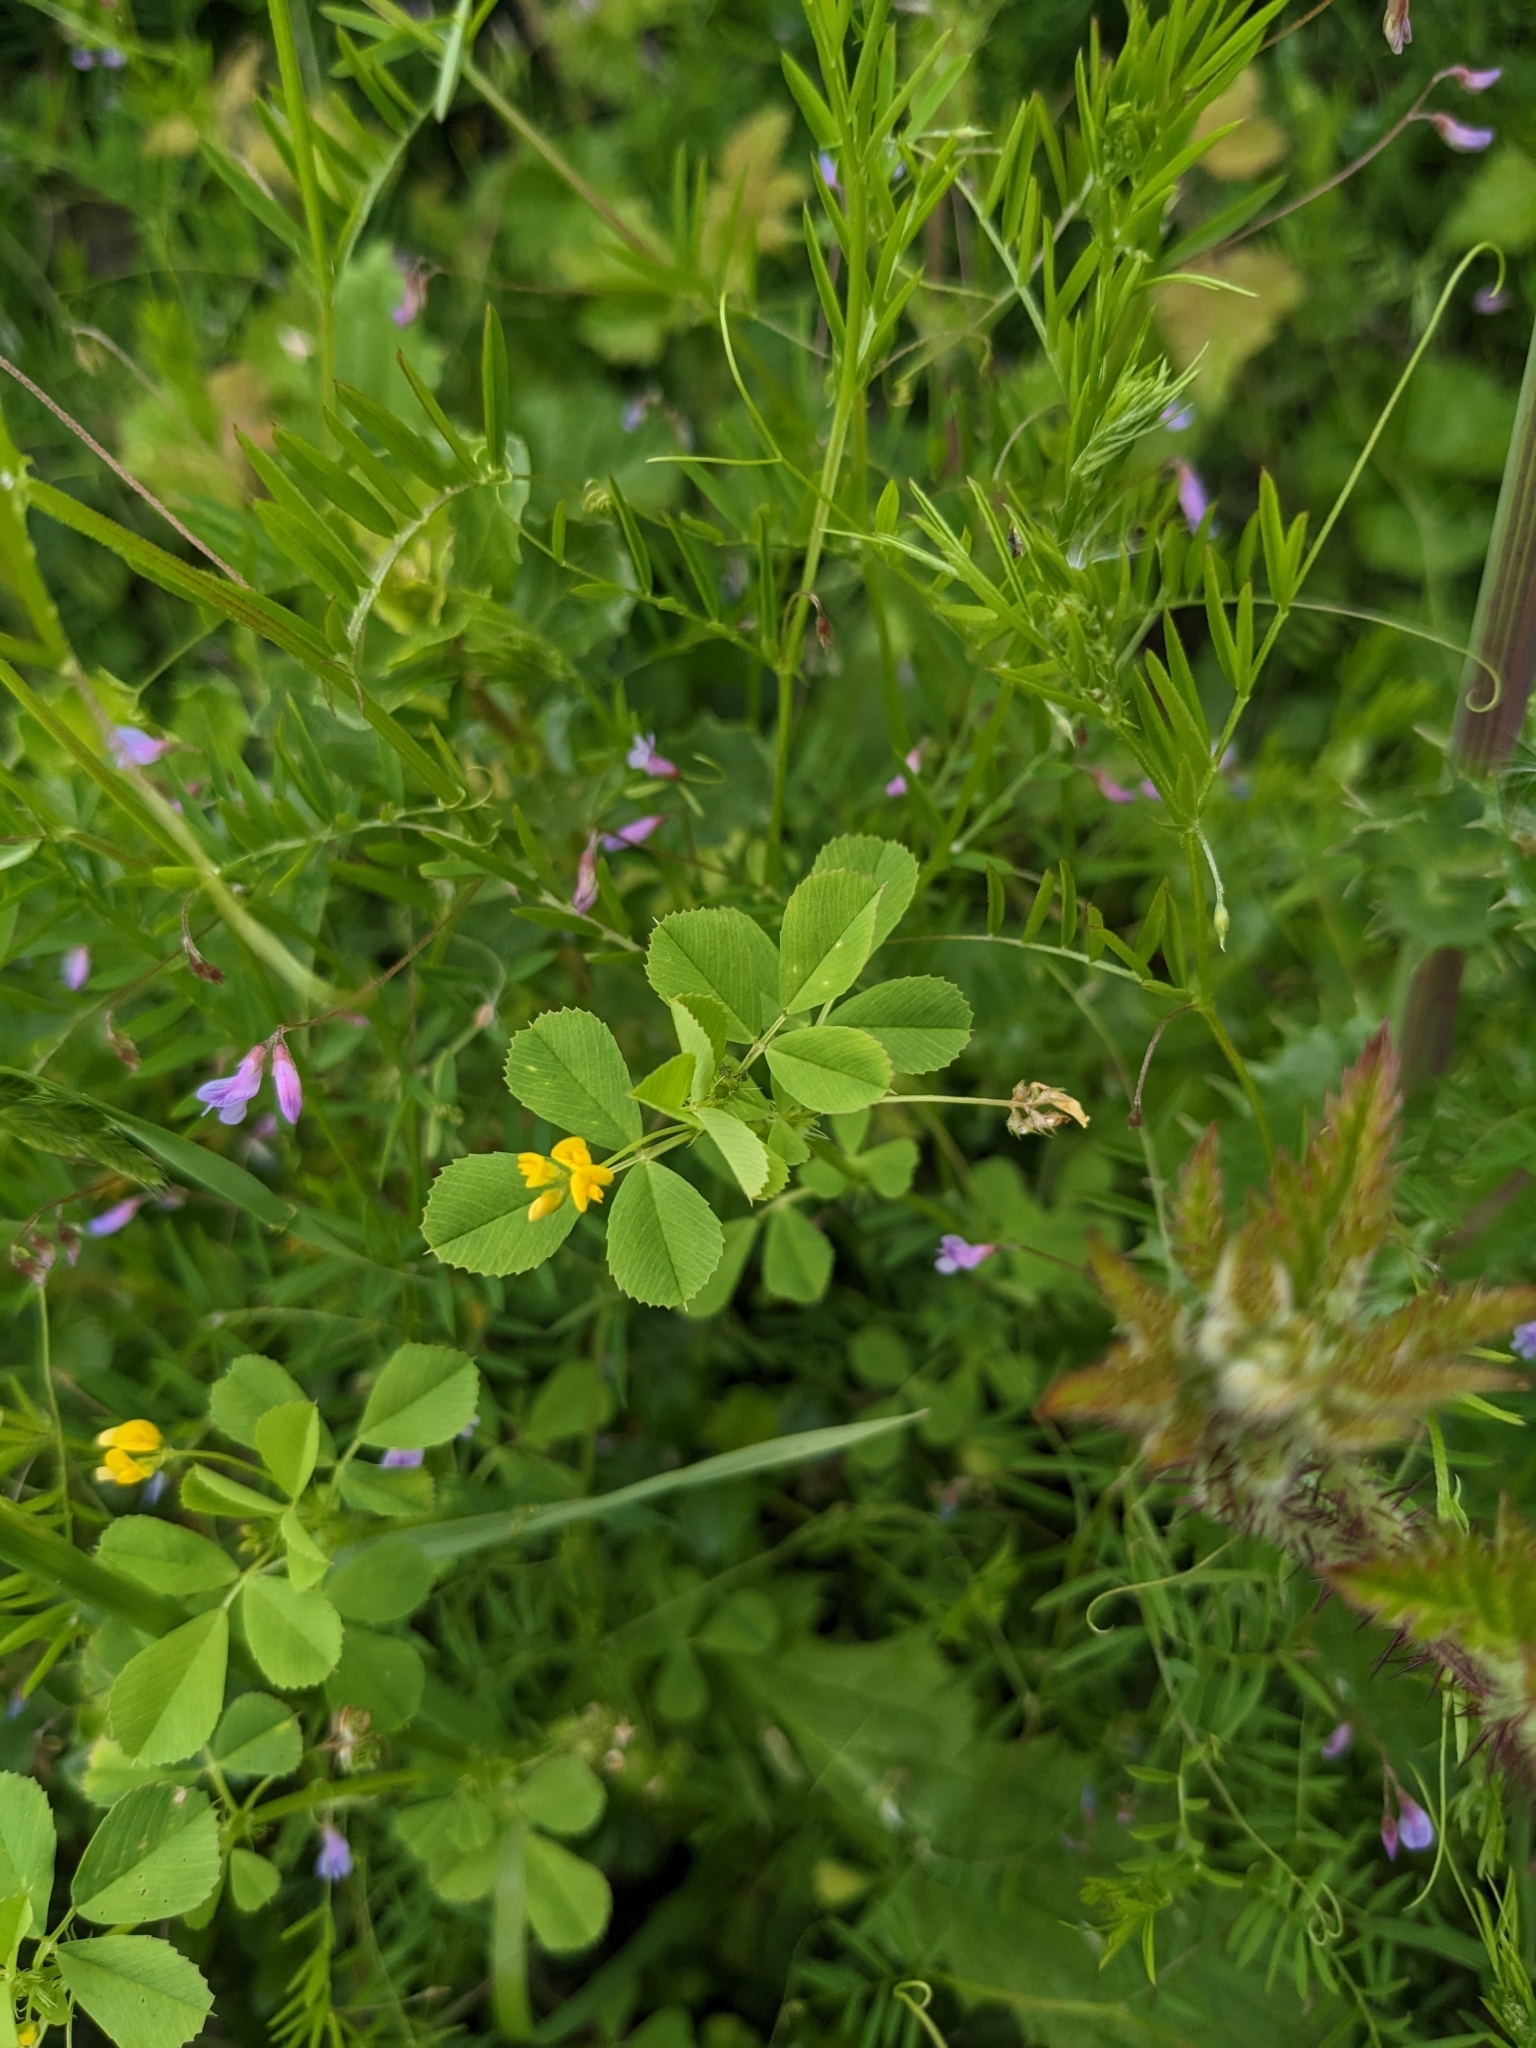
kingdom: Plantae
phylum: Tracheophyta
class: Magnoliopsida
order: Fabales
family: Fabaceae
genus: Medicago
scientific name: Medicago polymorpha
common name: Burclover
